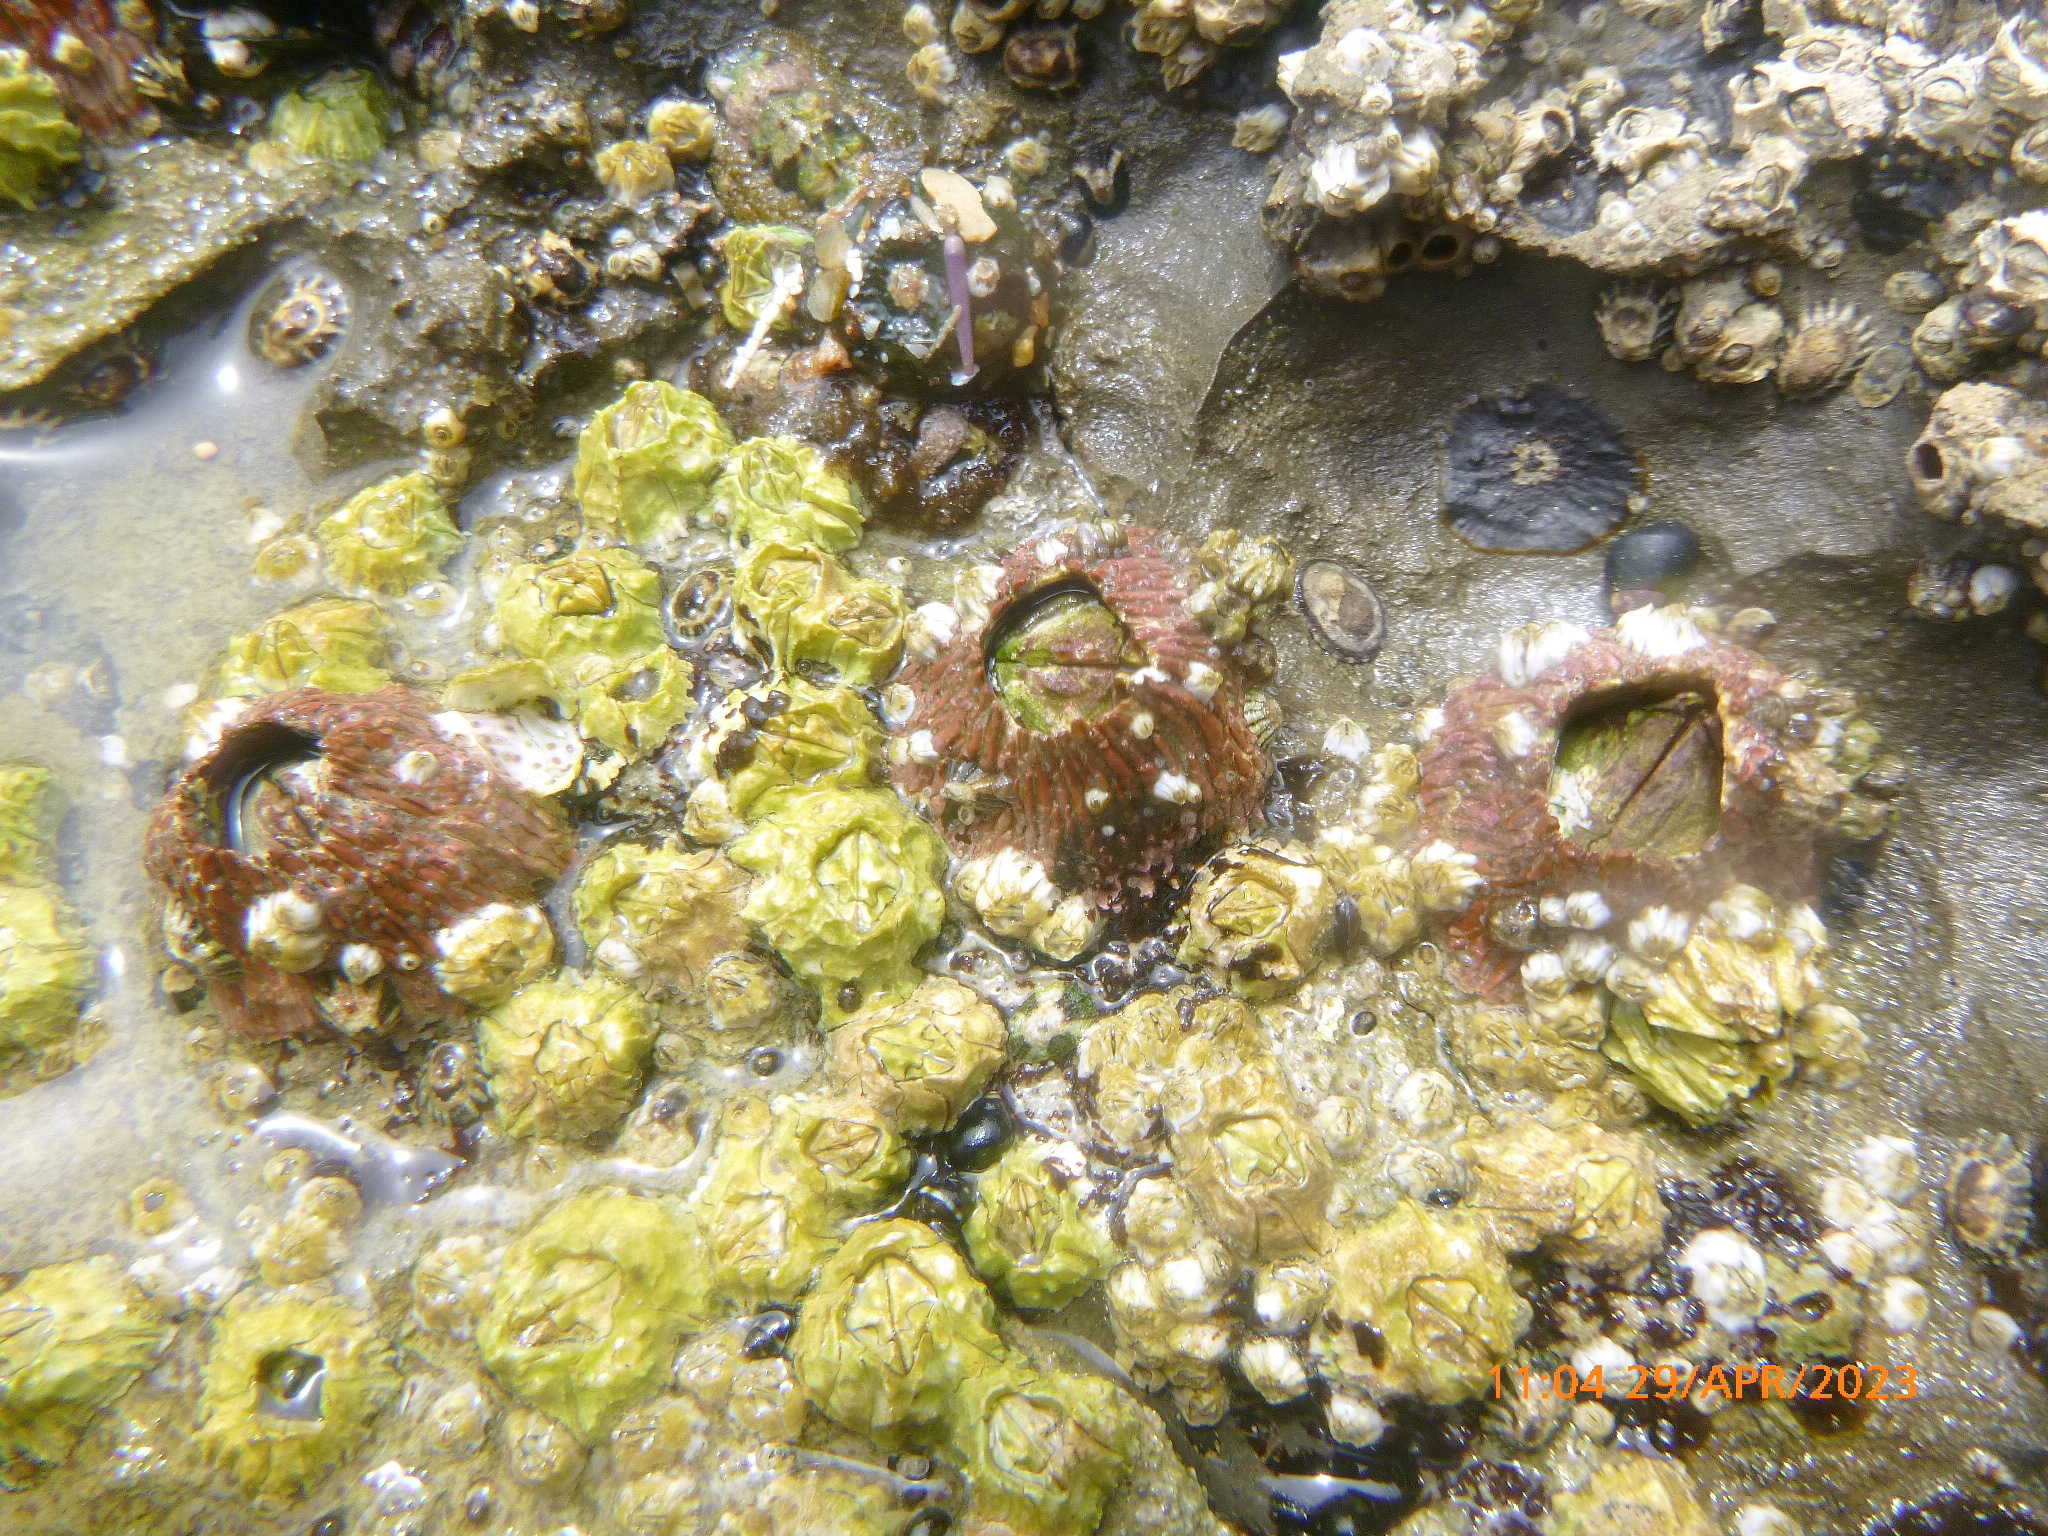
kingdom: Animalia
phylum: Arthropoda
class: Maxillopoda
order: Sessilia
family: Tetraclitidae
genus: Tetraclita
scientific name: Tetraclita rubescens
